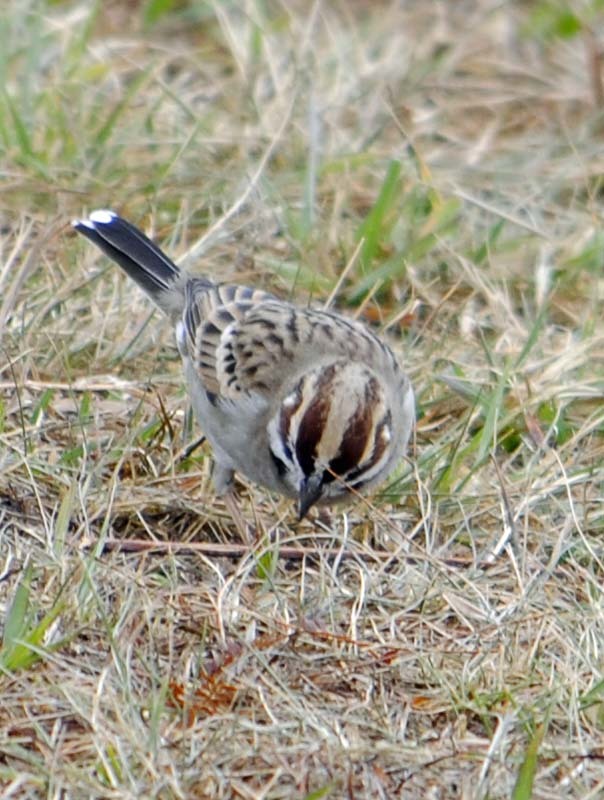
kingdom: Animalia
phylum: Chordata
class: Aves
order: Passeriformes
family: Passerellidae
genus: Chondestes
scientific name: Chondestes grammacus
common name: Lark sparrow
